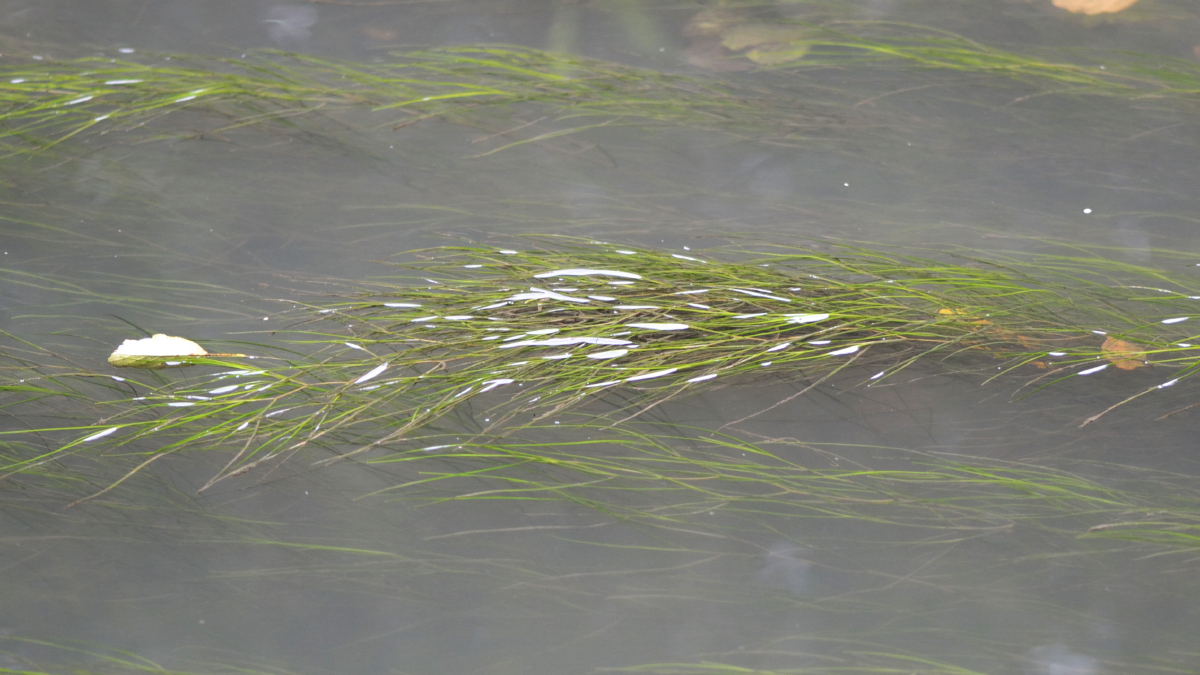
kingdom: Plantae
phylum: Tracheophyta
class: Liliopsida
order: Alismatales
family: Potamogetonaceae
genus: Stuckenia
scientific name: Stuckenia pectinata
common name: Sago pondweed
